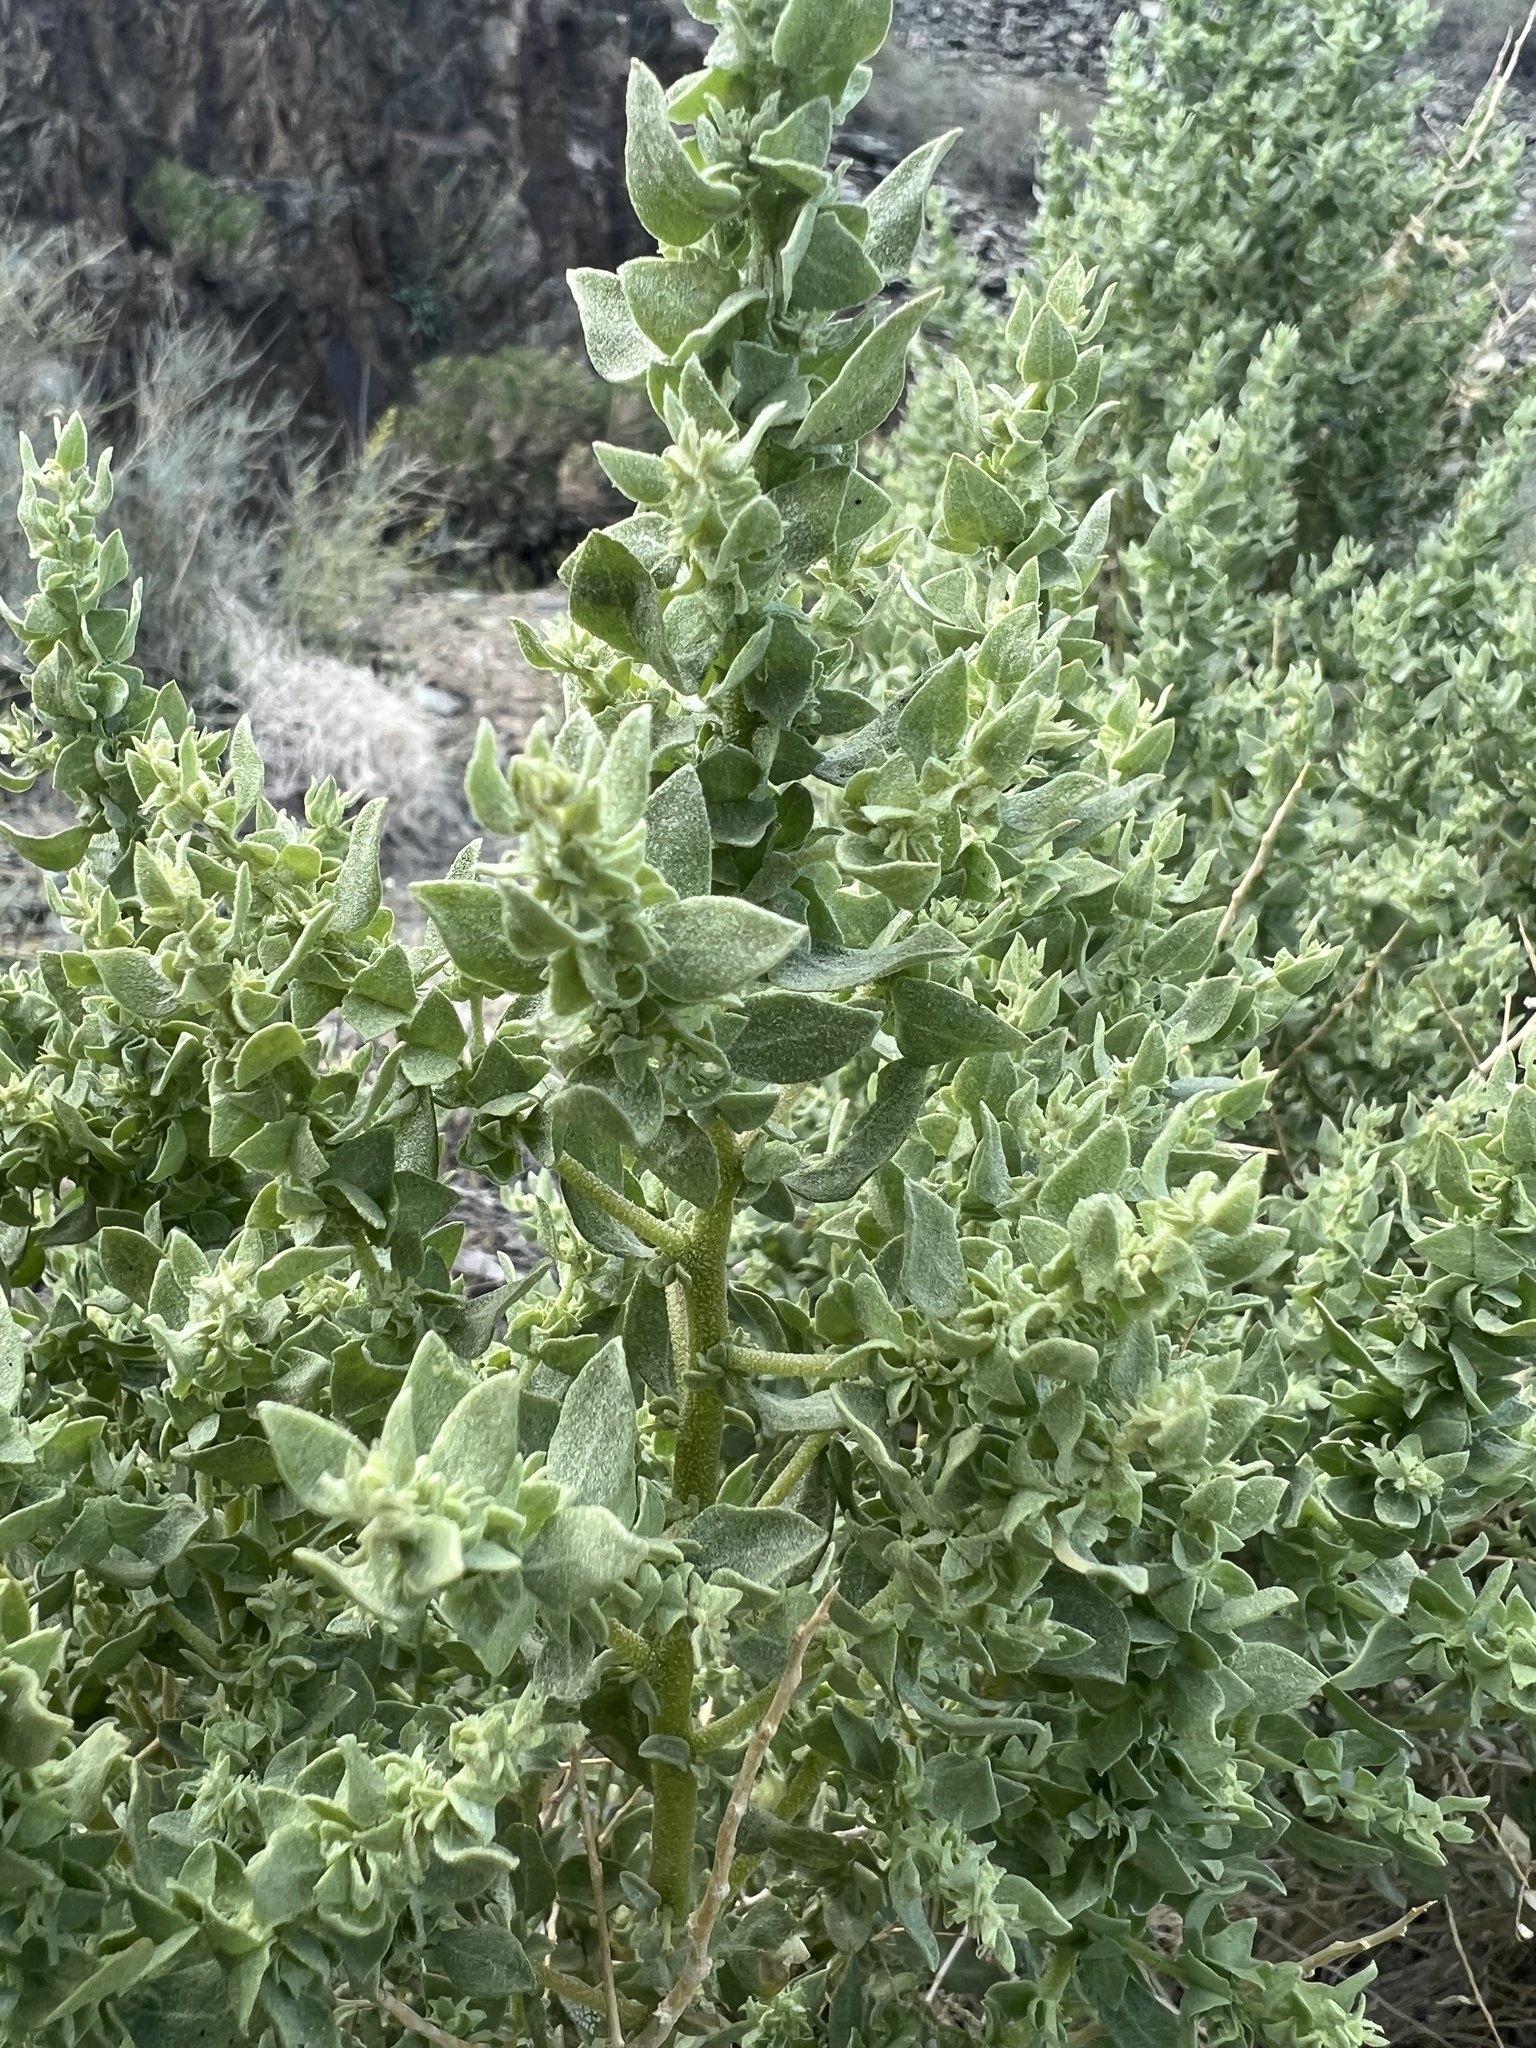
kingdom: Plantae
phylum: Tracheophyta
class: Magnoliopsida
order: Caryophyllales
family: Amaranthaceae
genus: Atriplex
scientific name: Atriplex confertifolia
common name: Shadscale
